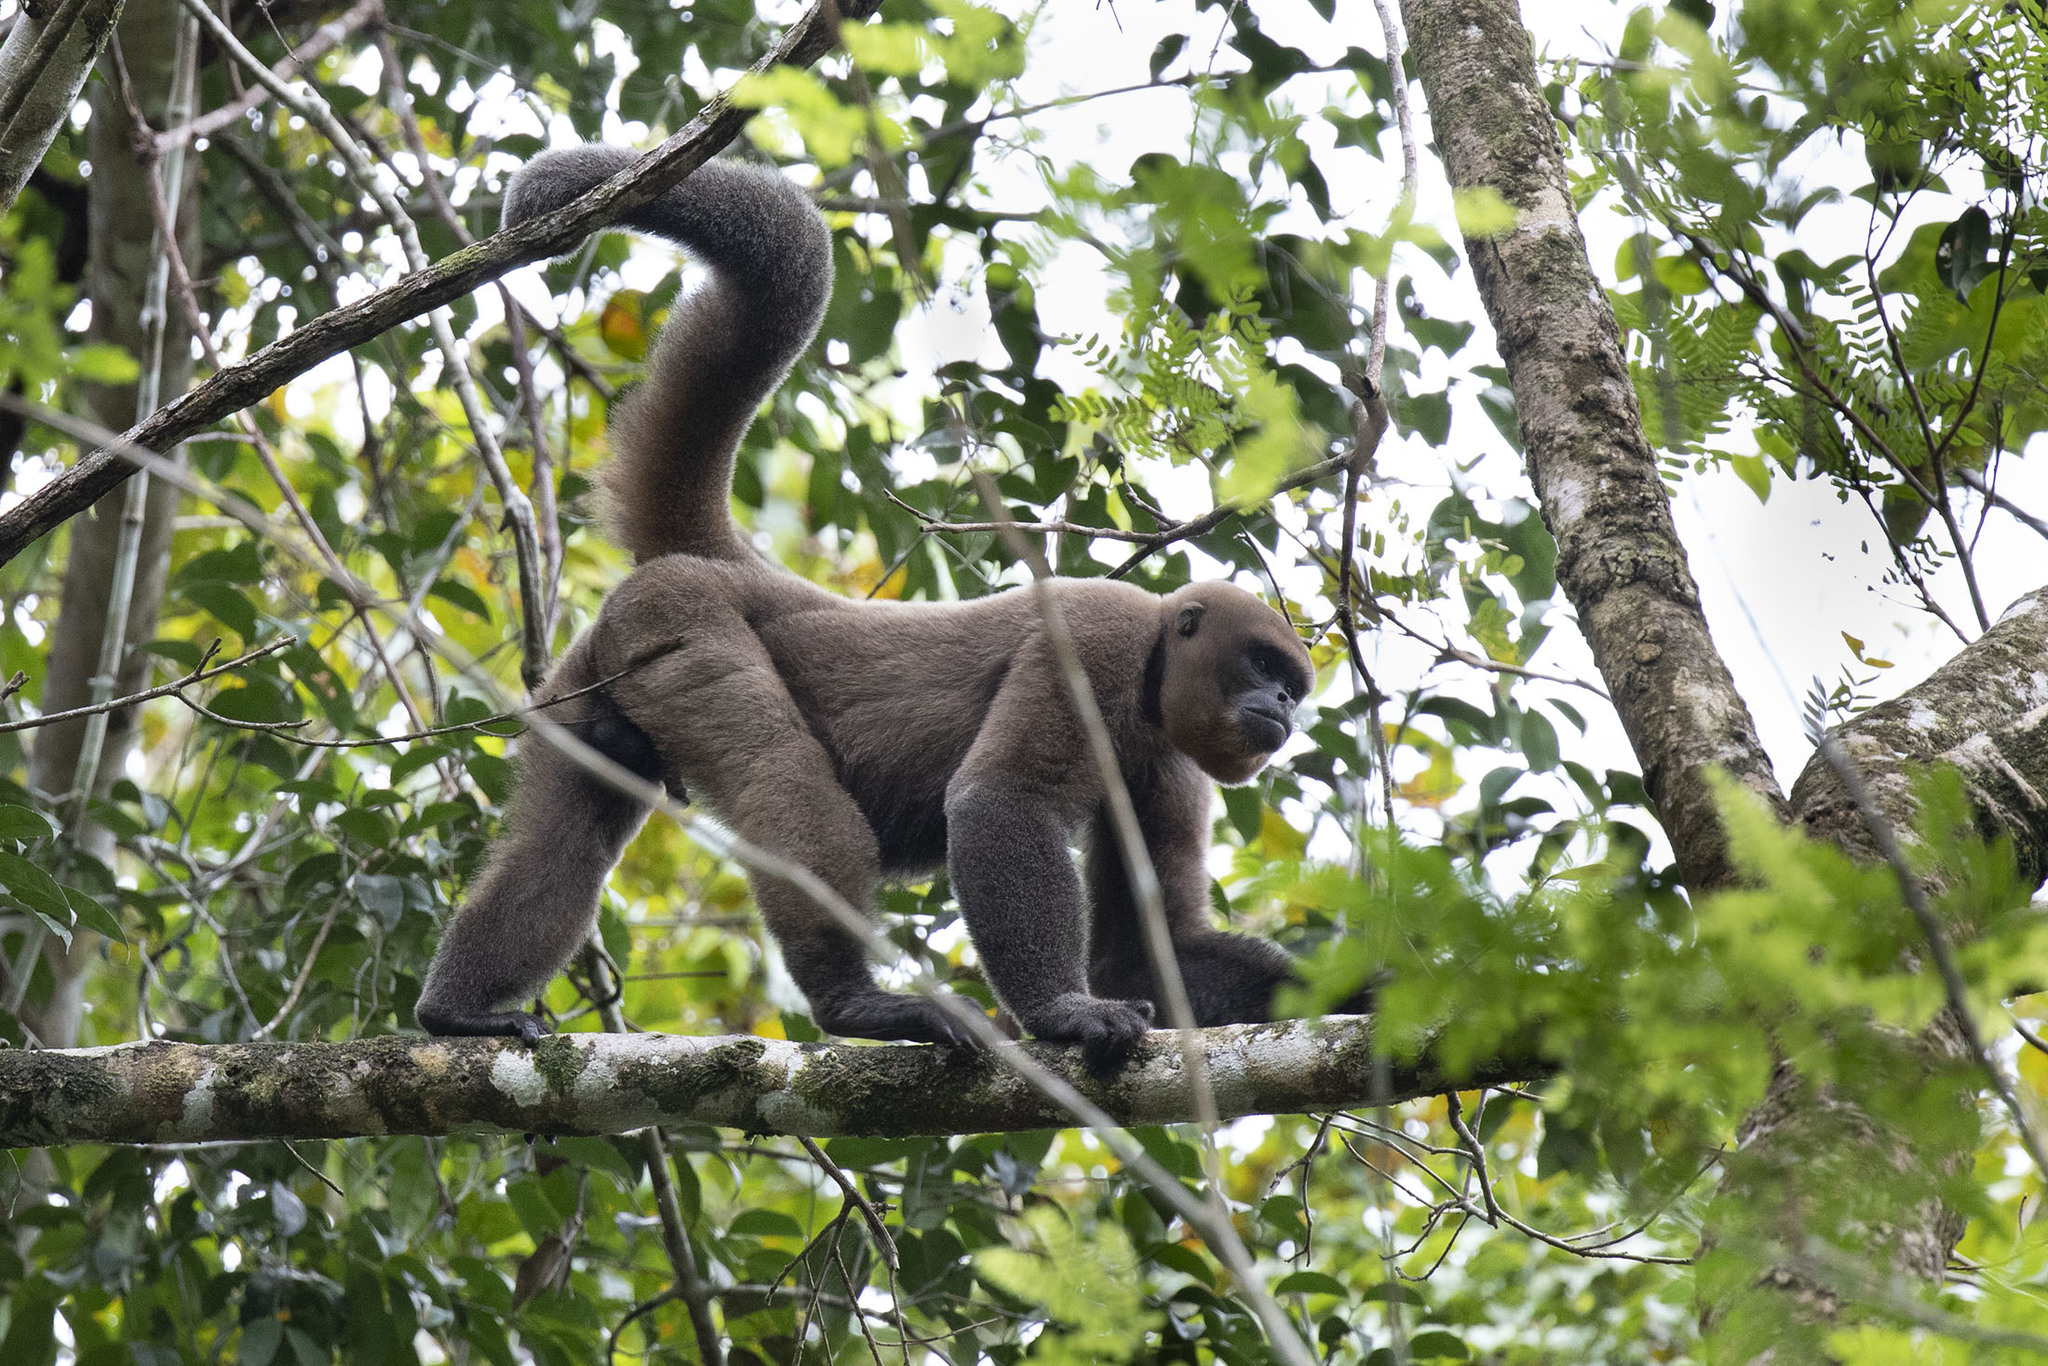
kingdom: Animalia
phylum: Chordata
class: Mammalia
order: Primates
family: Atelidae
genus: Lagothrix
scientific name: Lagothrix lagothricha
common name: Brown woolly monkey
